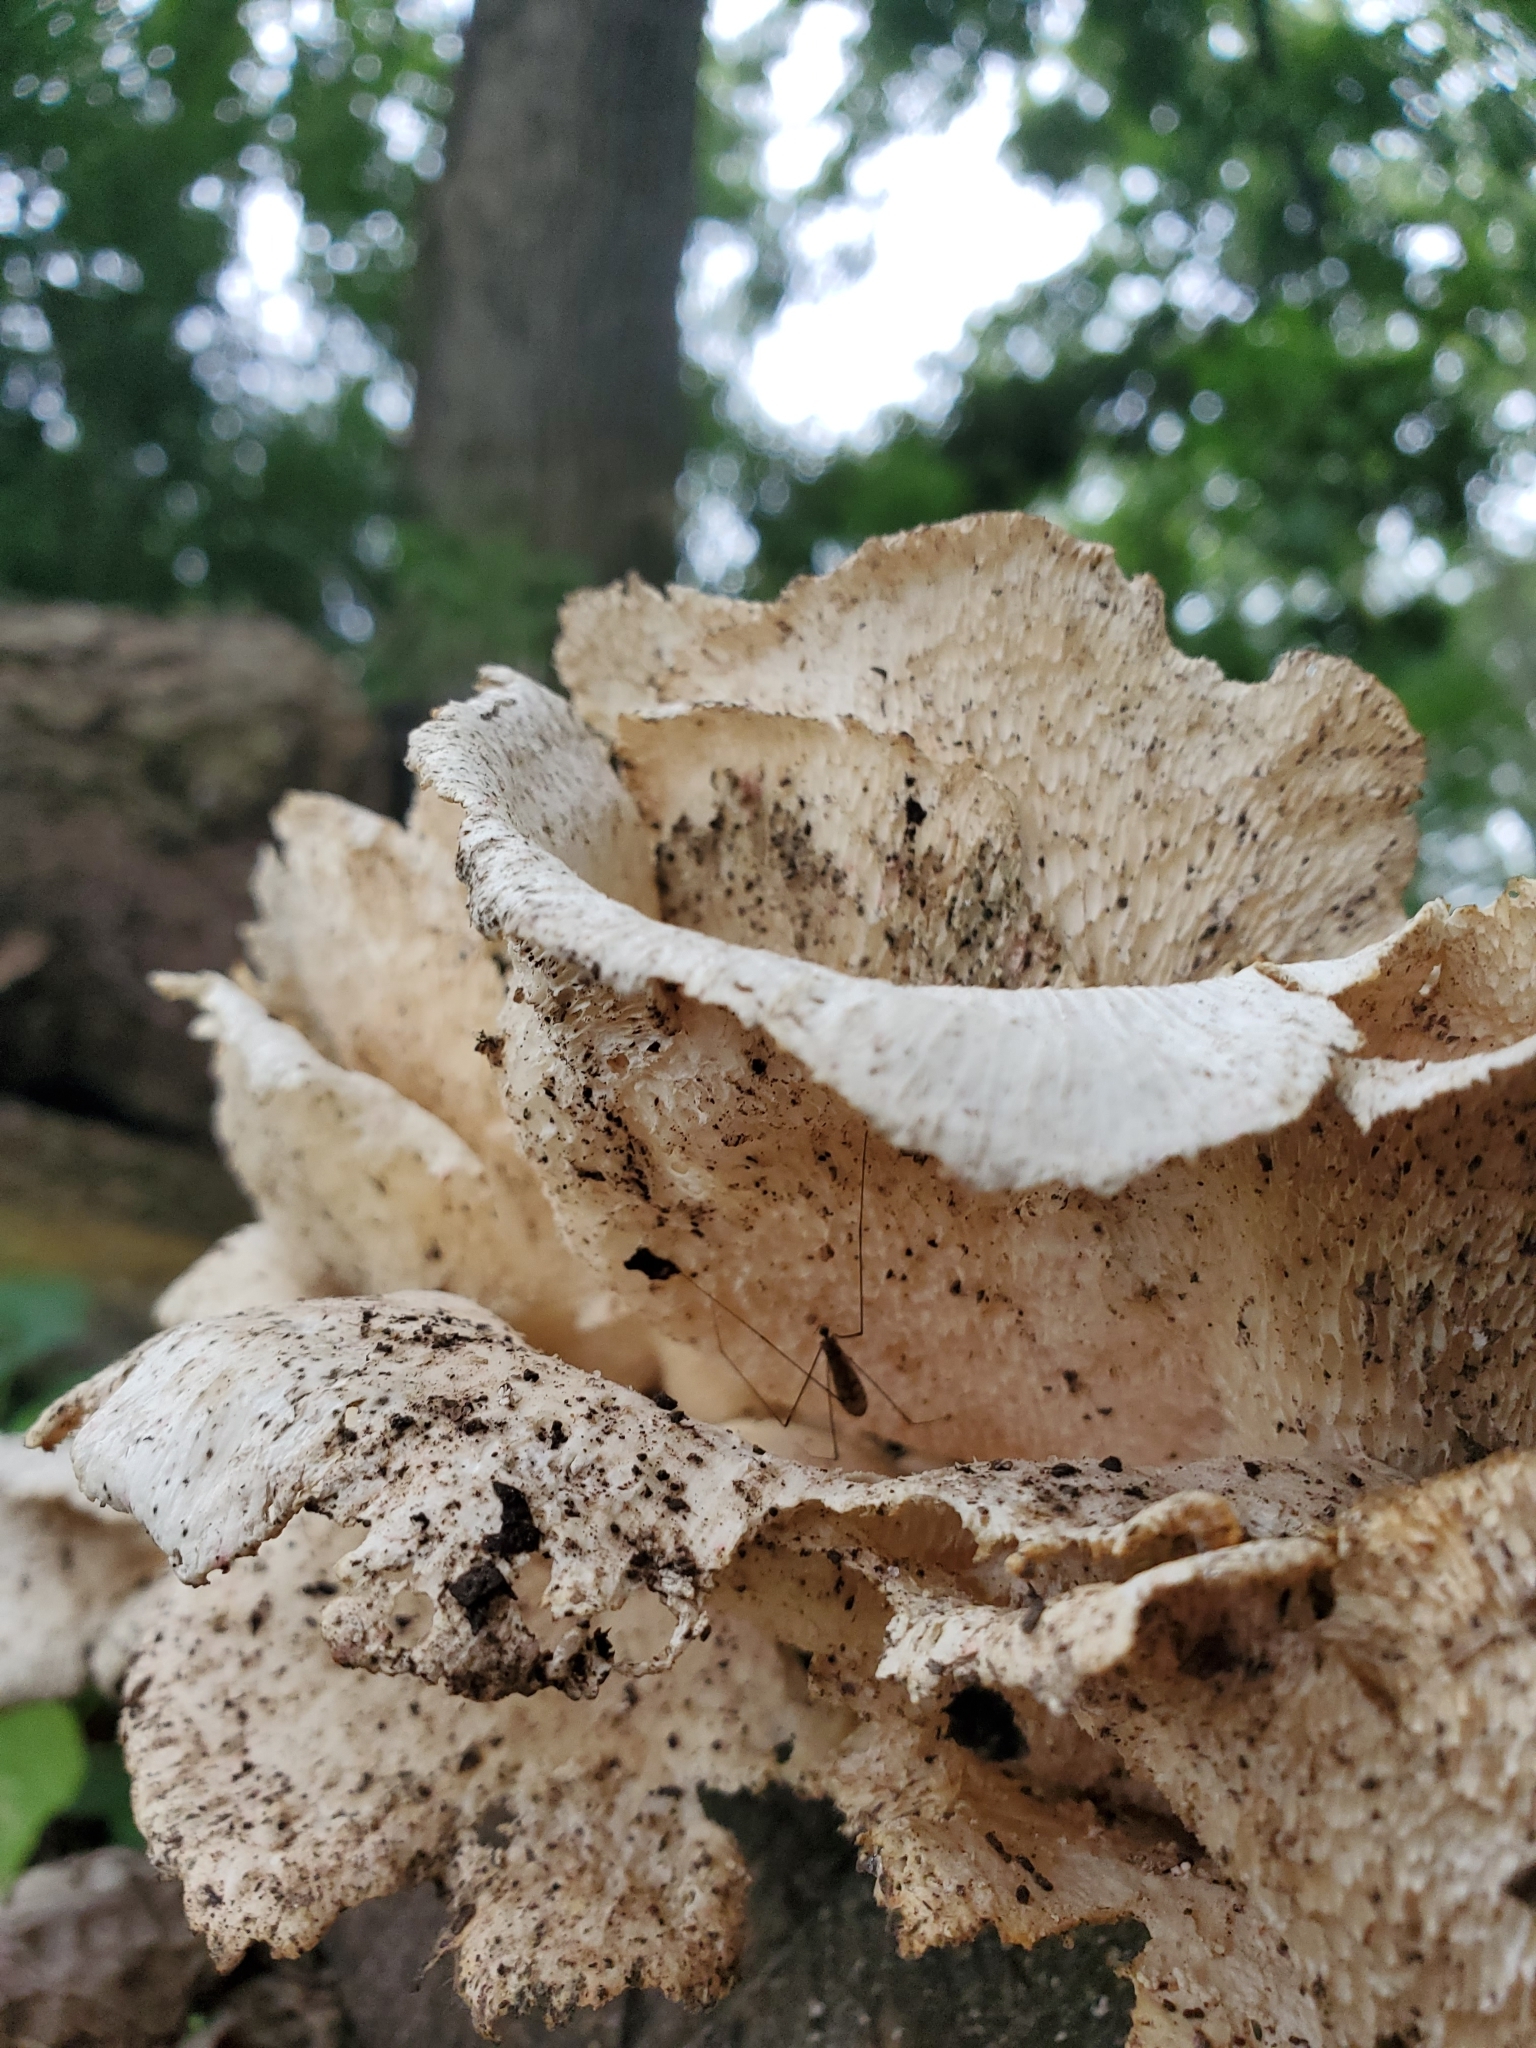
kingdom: Fungi
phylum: Basidiomycota
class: Agaricomycetes
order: Polyporales
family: Polyporaceae
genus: Favolus
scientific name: Favolus tenuiculus
